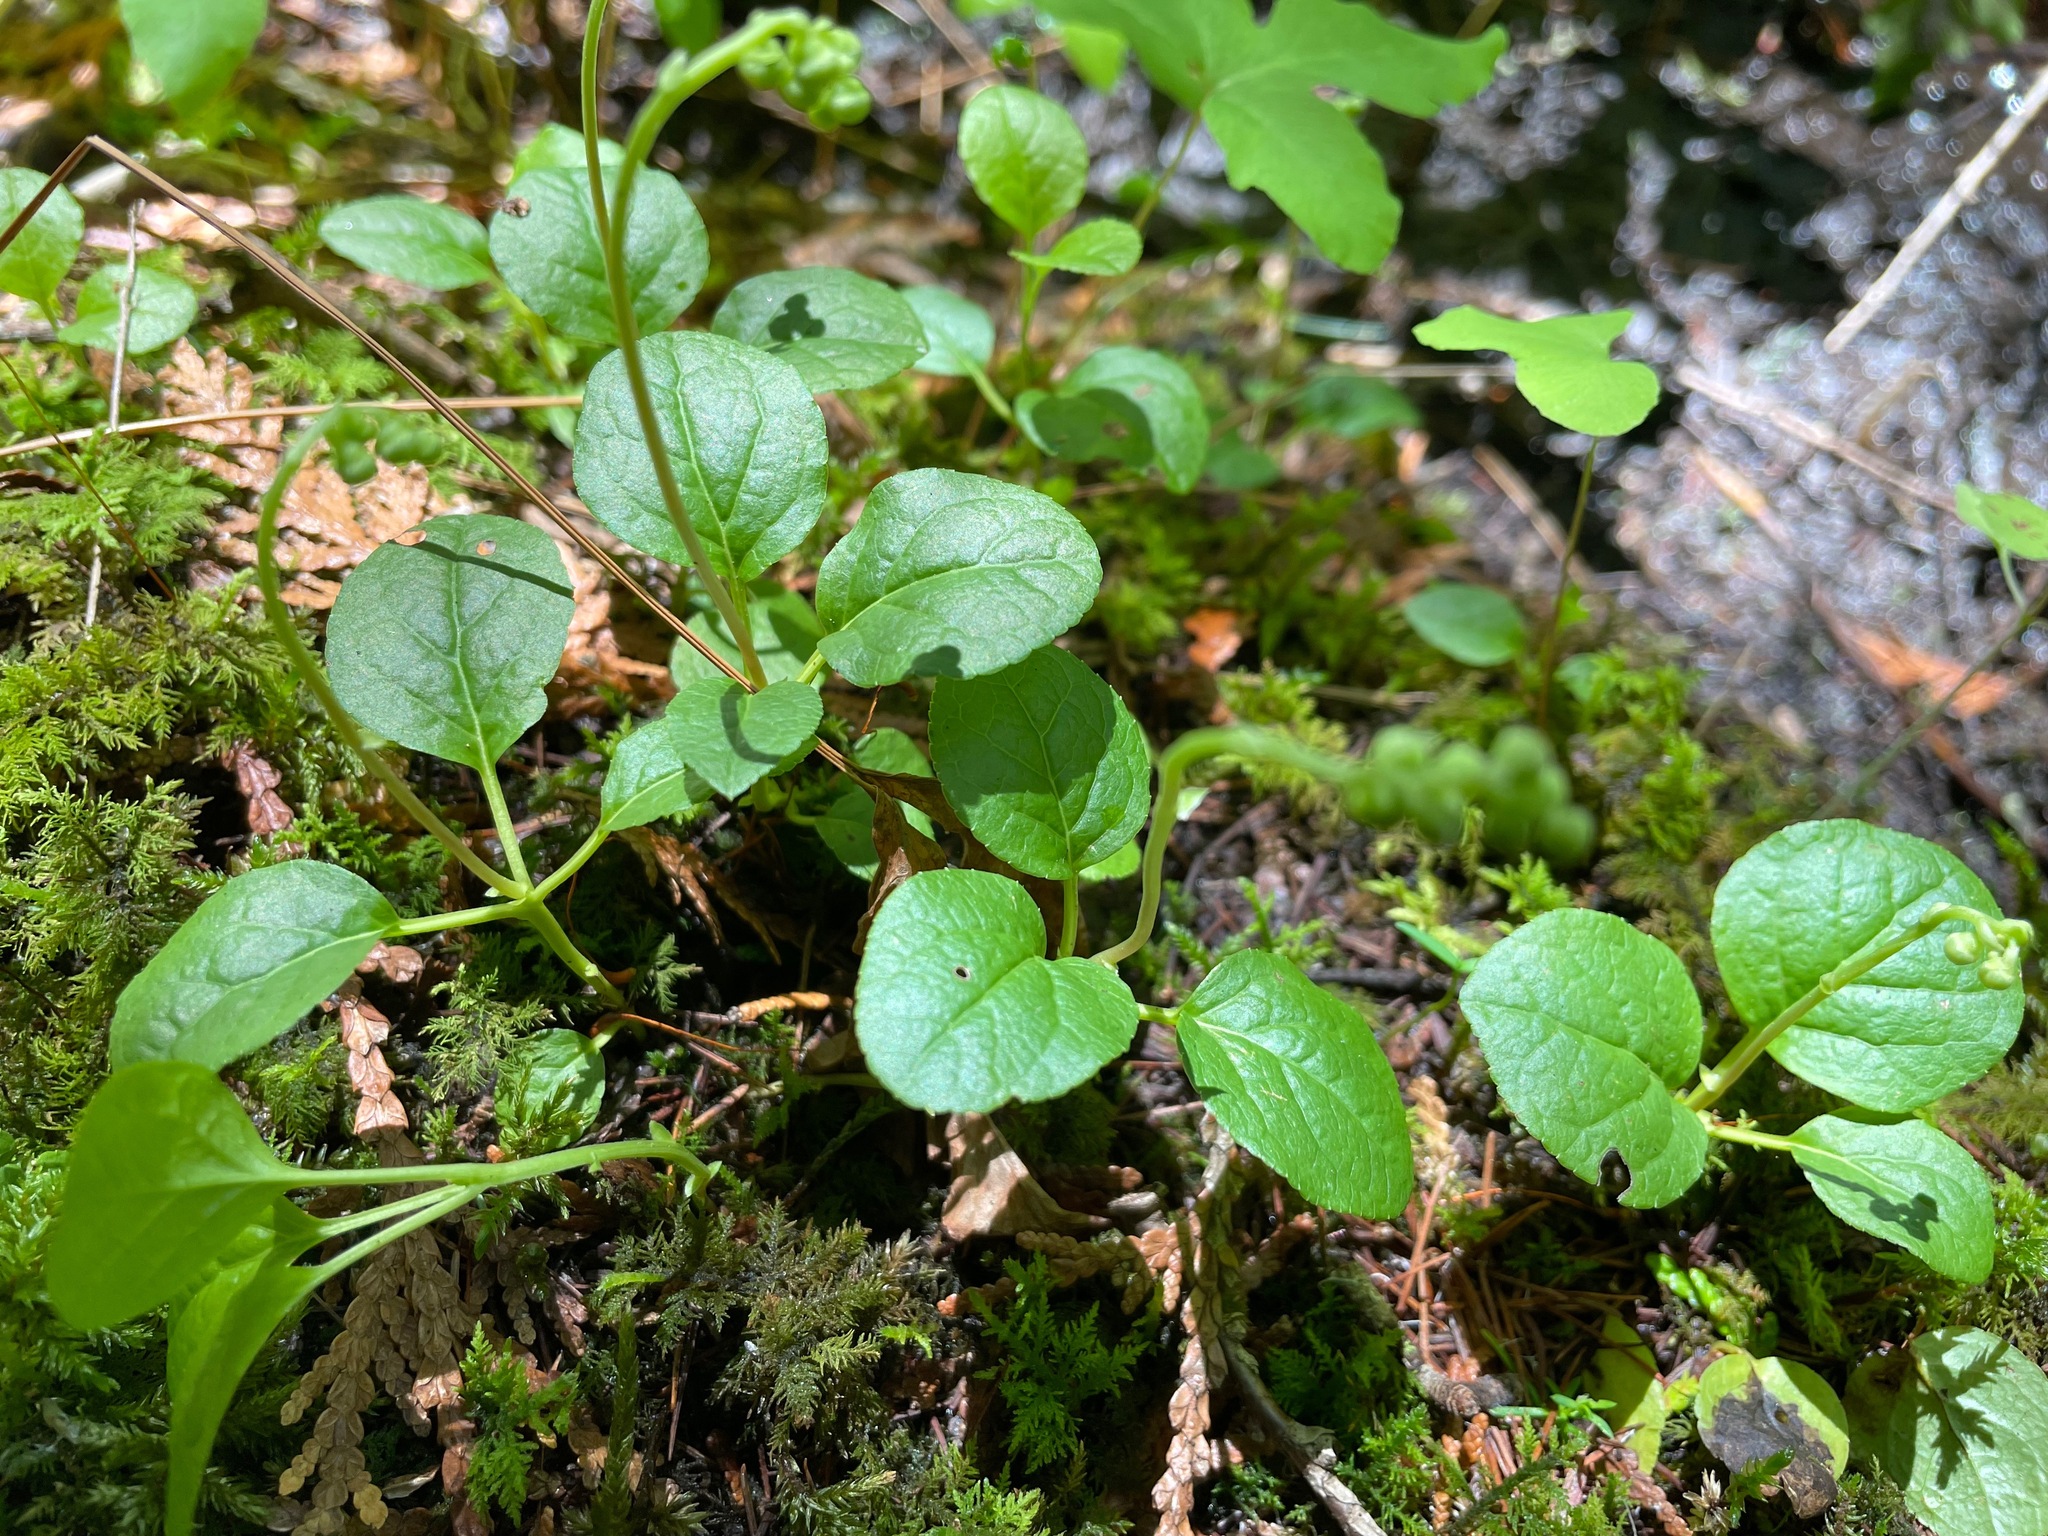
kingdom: Plantae
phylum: Tracheophyta
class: Magnoliopsida
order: Ericales
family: Ericaceae
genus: Orthilia
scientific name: Orthilia secunda
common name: One-sided orthilia
